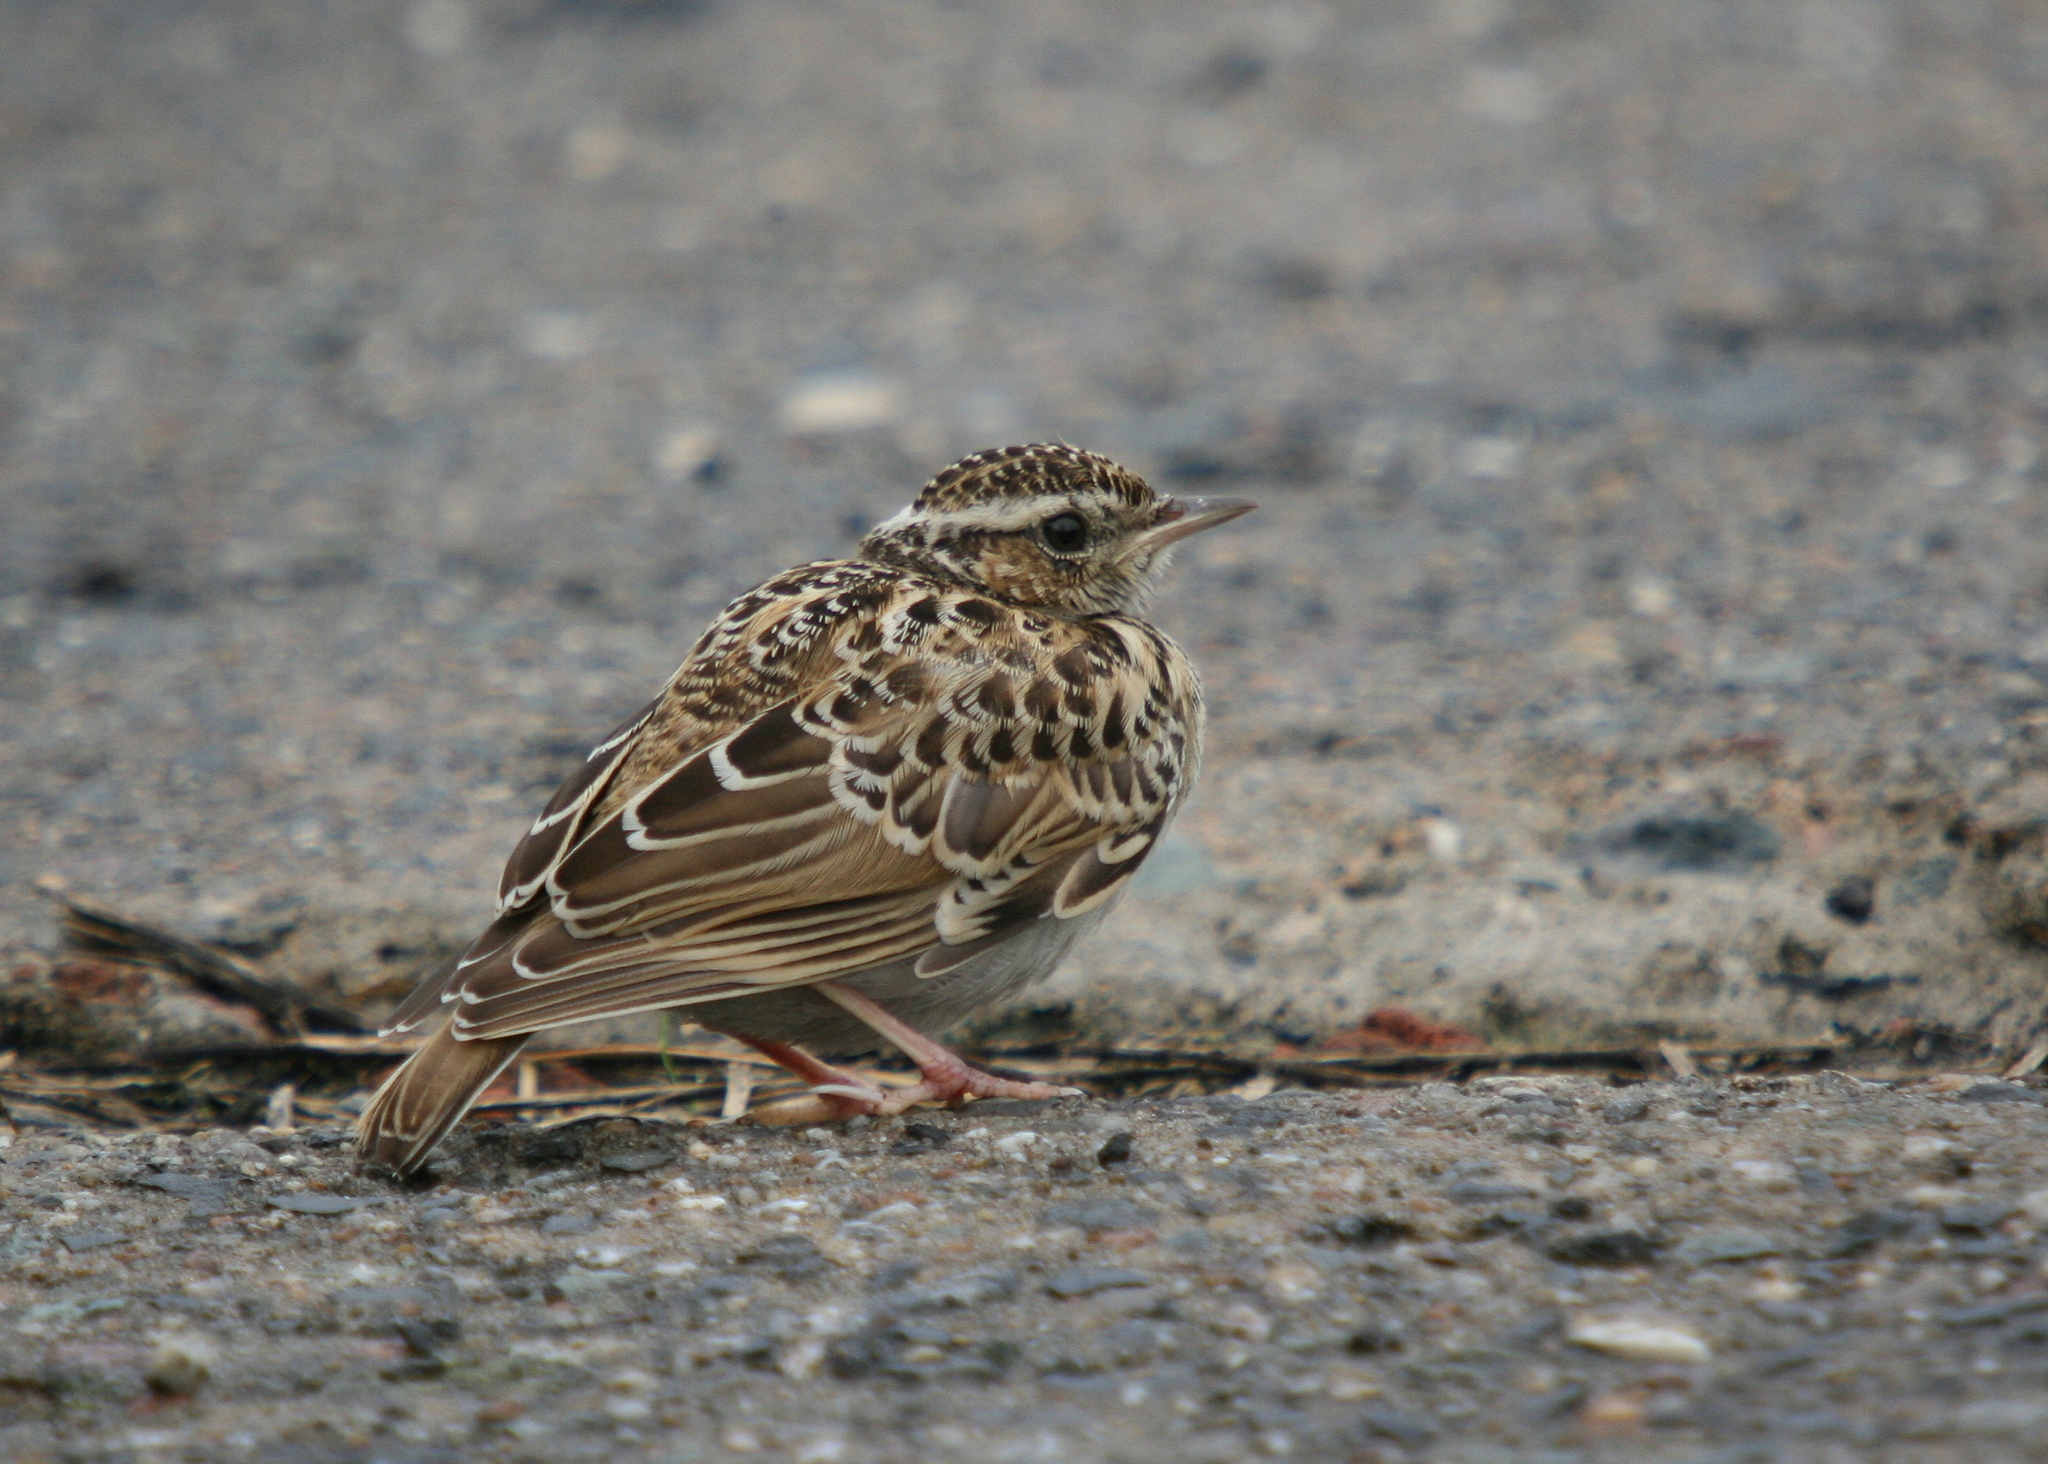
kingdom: Animalia
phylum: Chordata
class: Aves
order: Passeriformes
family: Alaudidae
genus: Lullula
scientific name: Lullula arborea
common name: Woodlark
